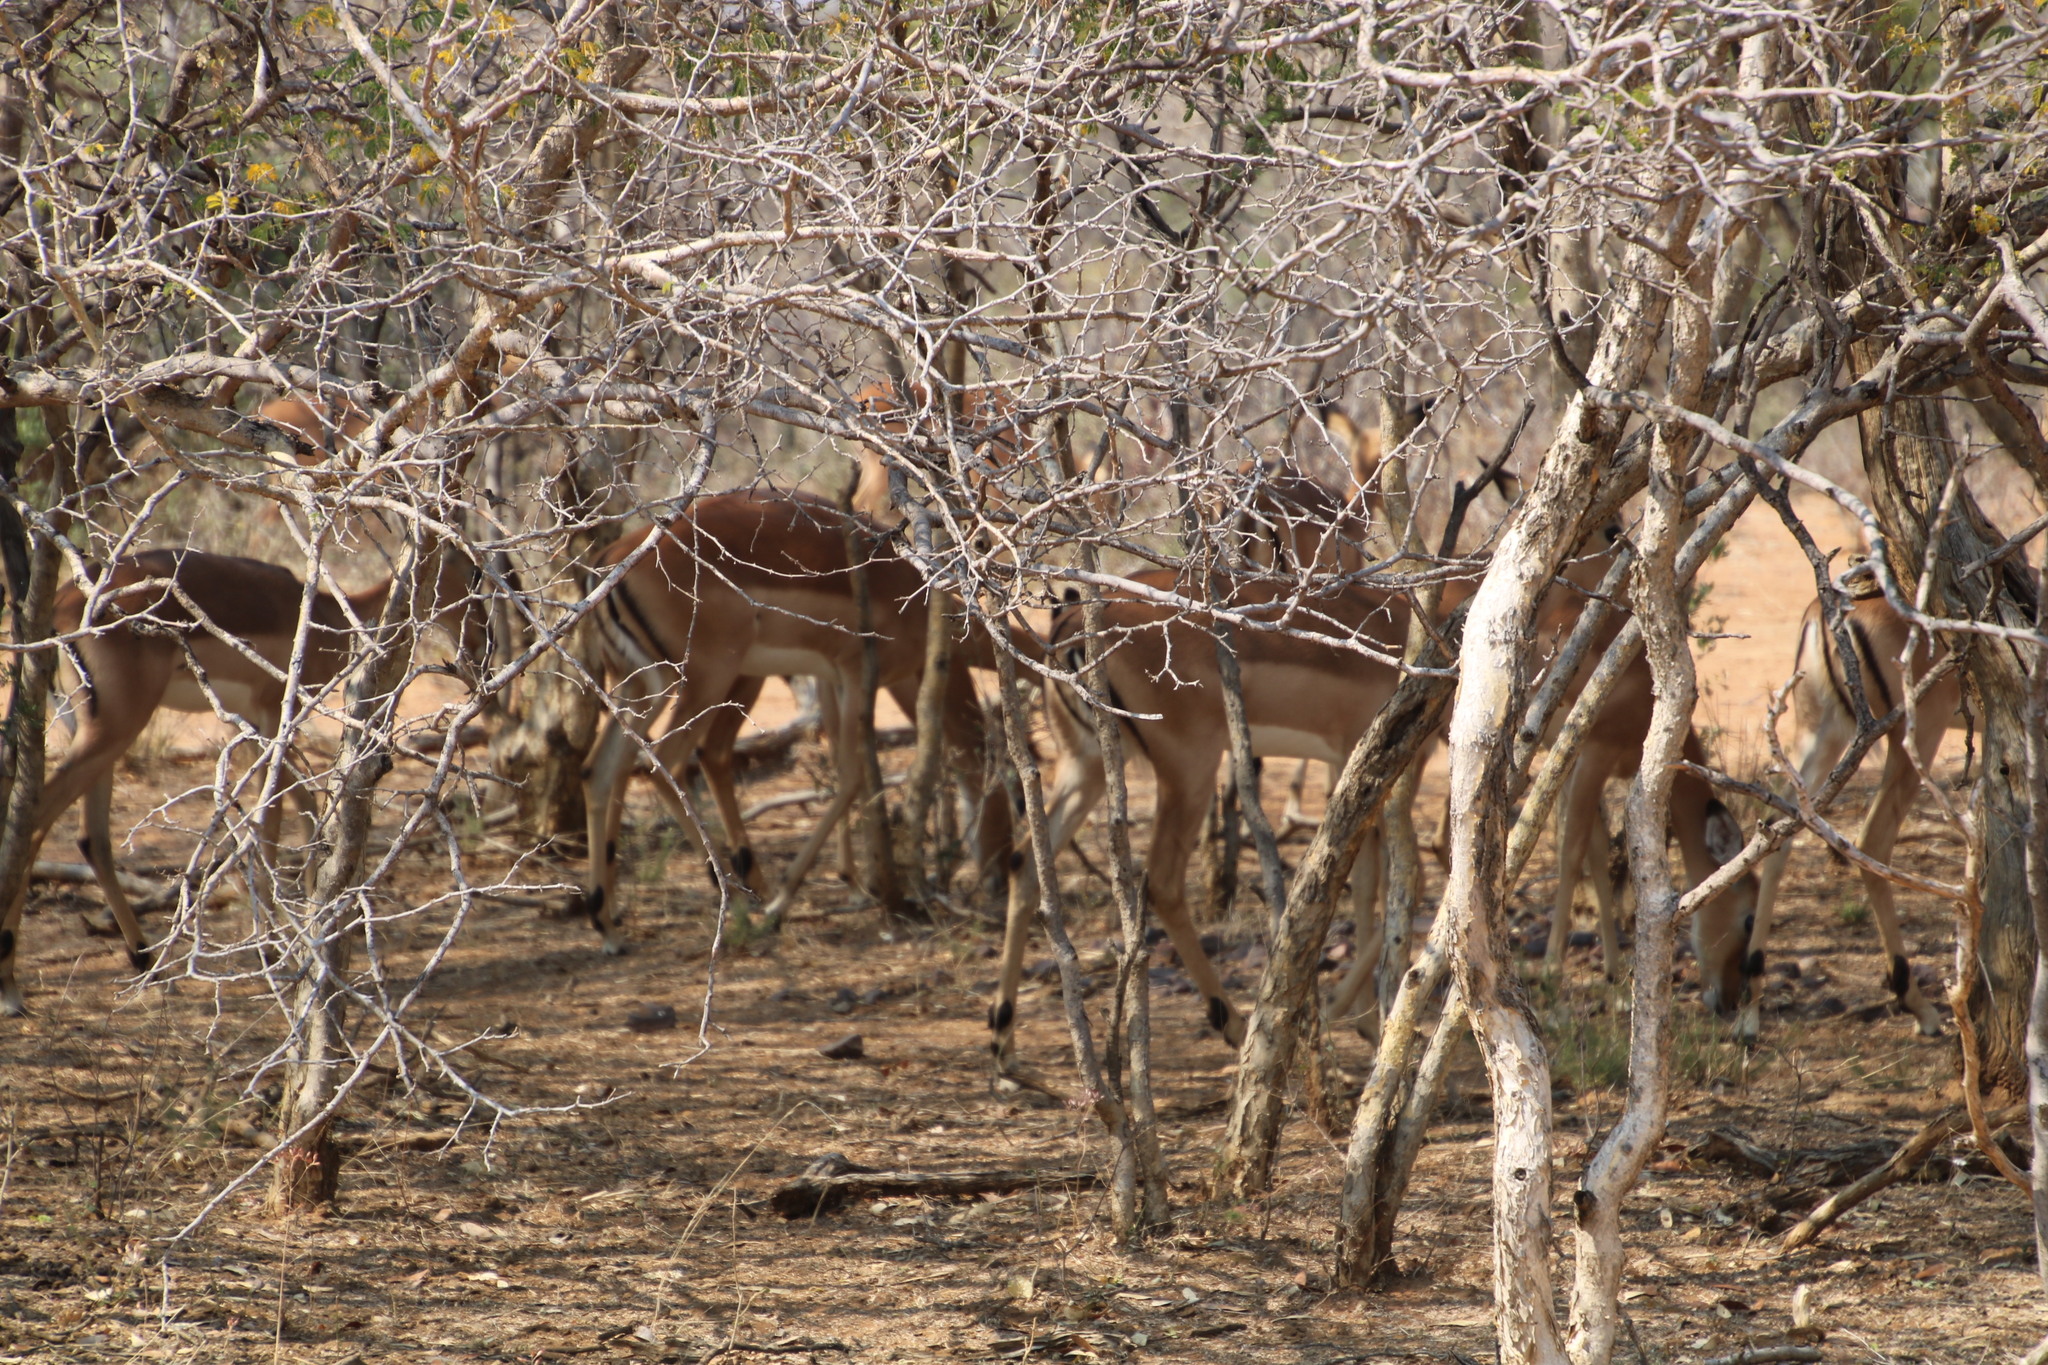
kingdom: Animalia
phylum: Chordata
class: Mammalia
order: Artiodactyla
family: Bovidae
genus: Aepyceros
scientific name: Aepyceros melampus
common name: Impala
